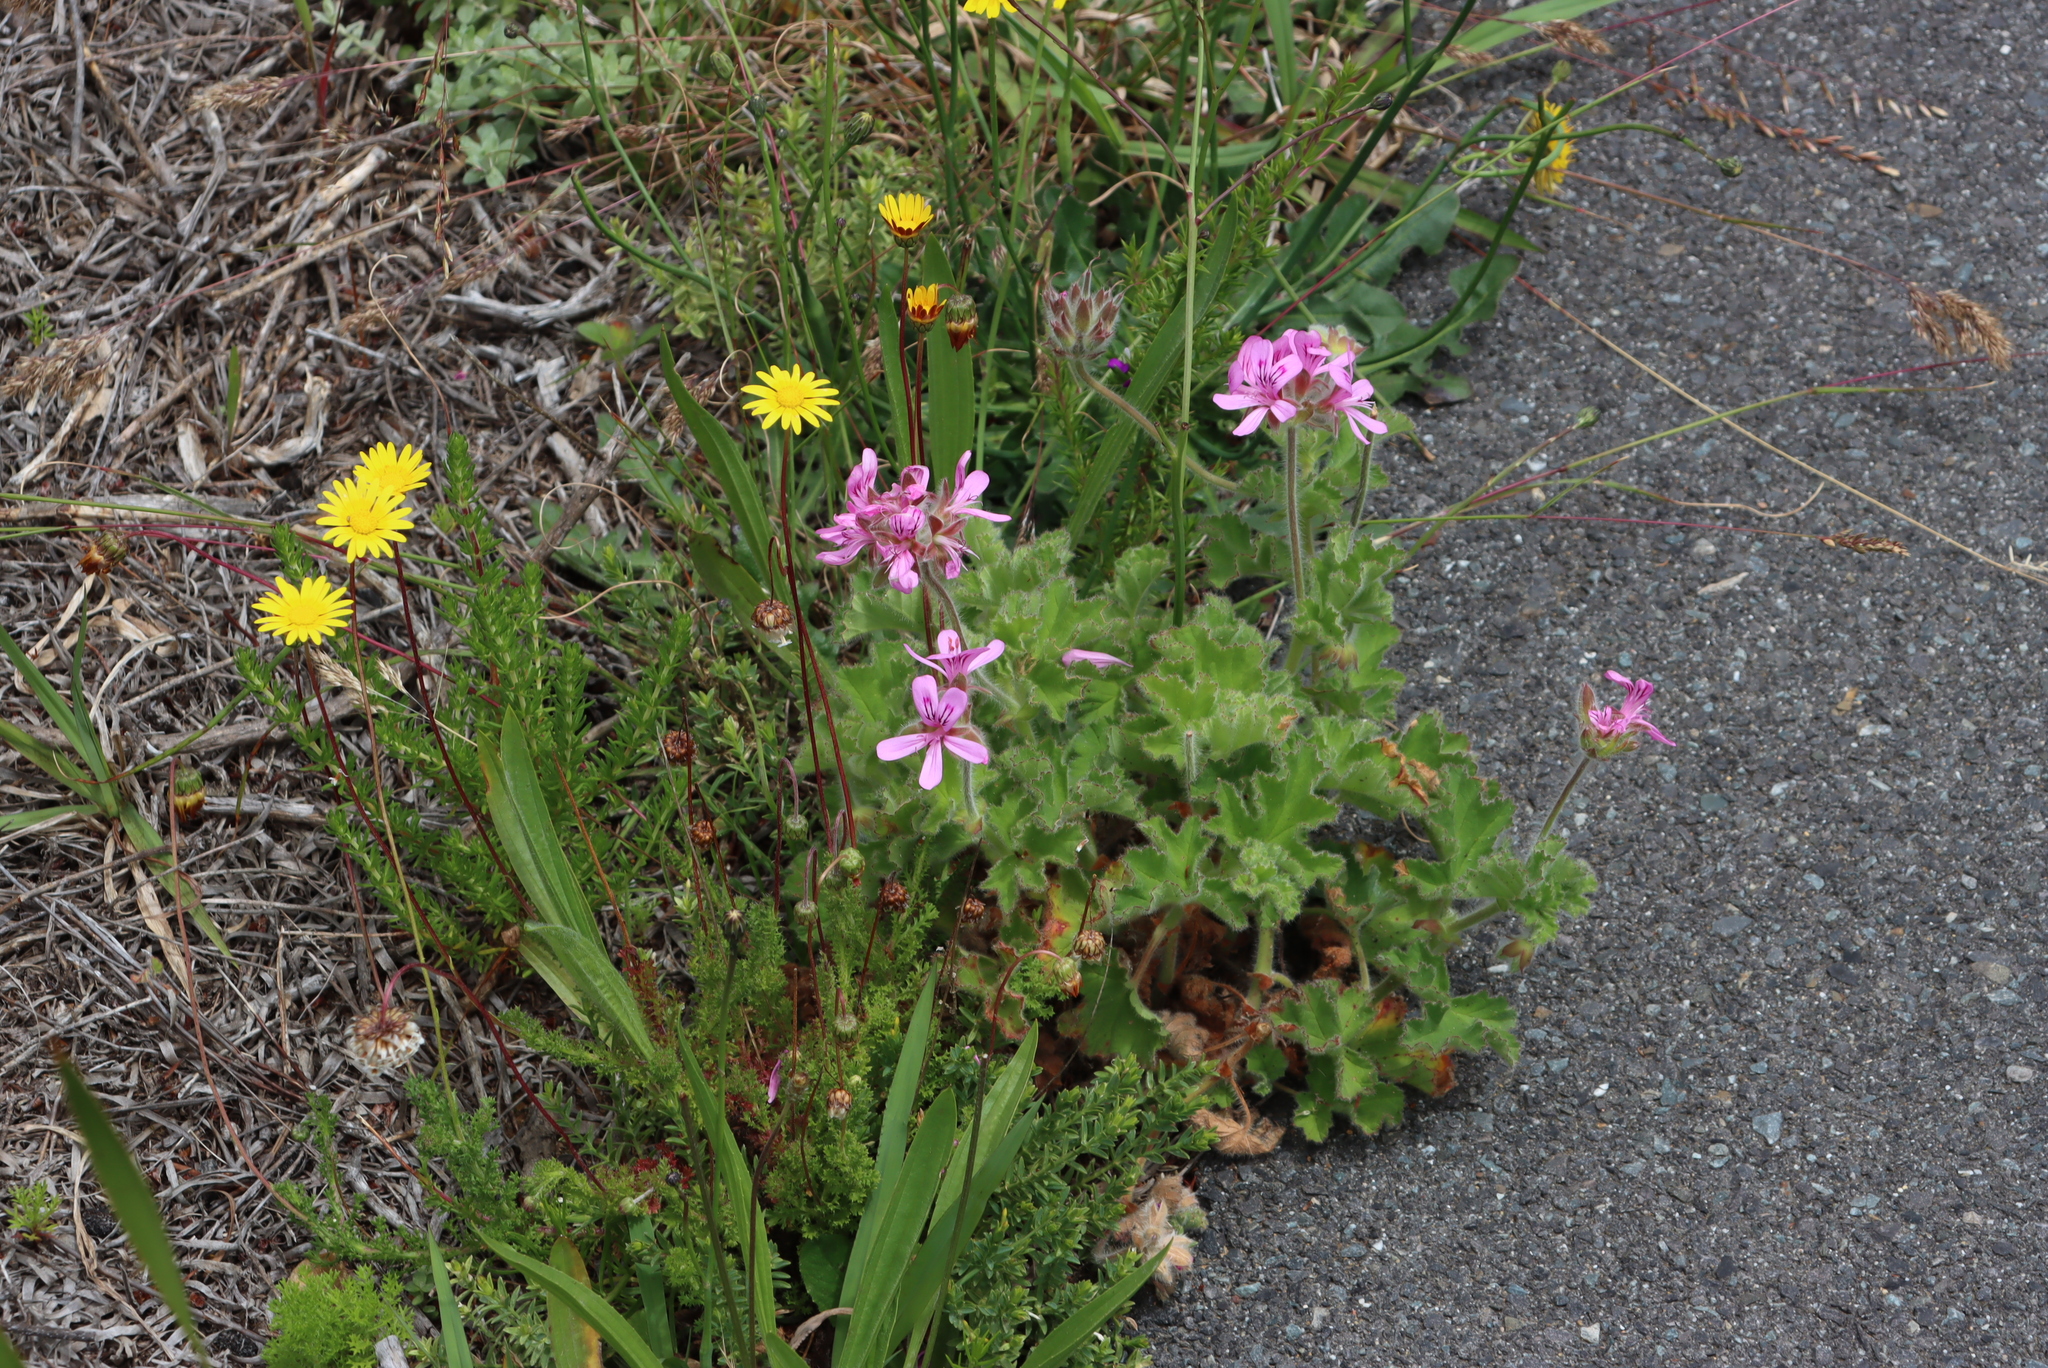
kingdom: Plantae
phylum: Tracheophyta
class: Magnoliopsida
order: Geraniales
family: Geraniaceae
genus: Pelargonium
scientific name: Pelargonium capitatum
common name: Rose scented geranium
